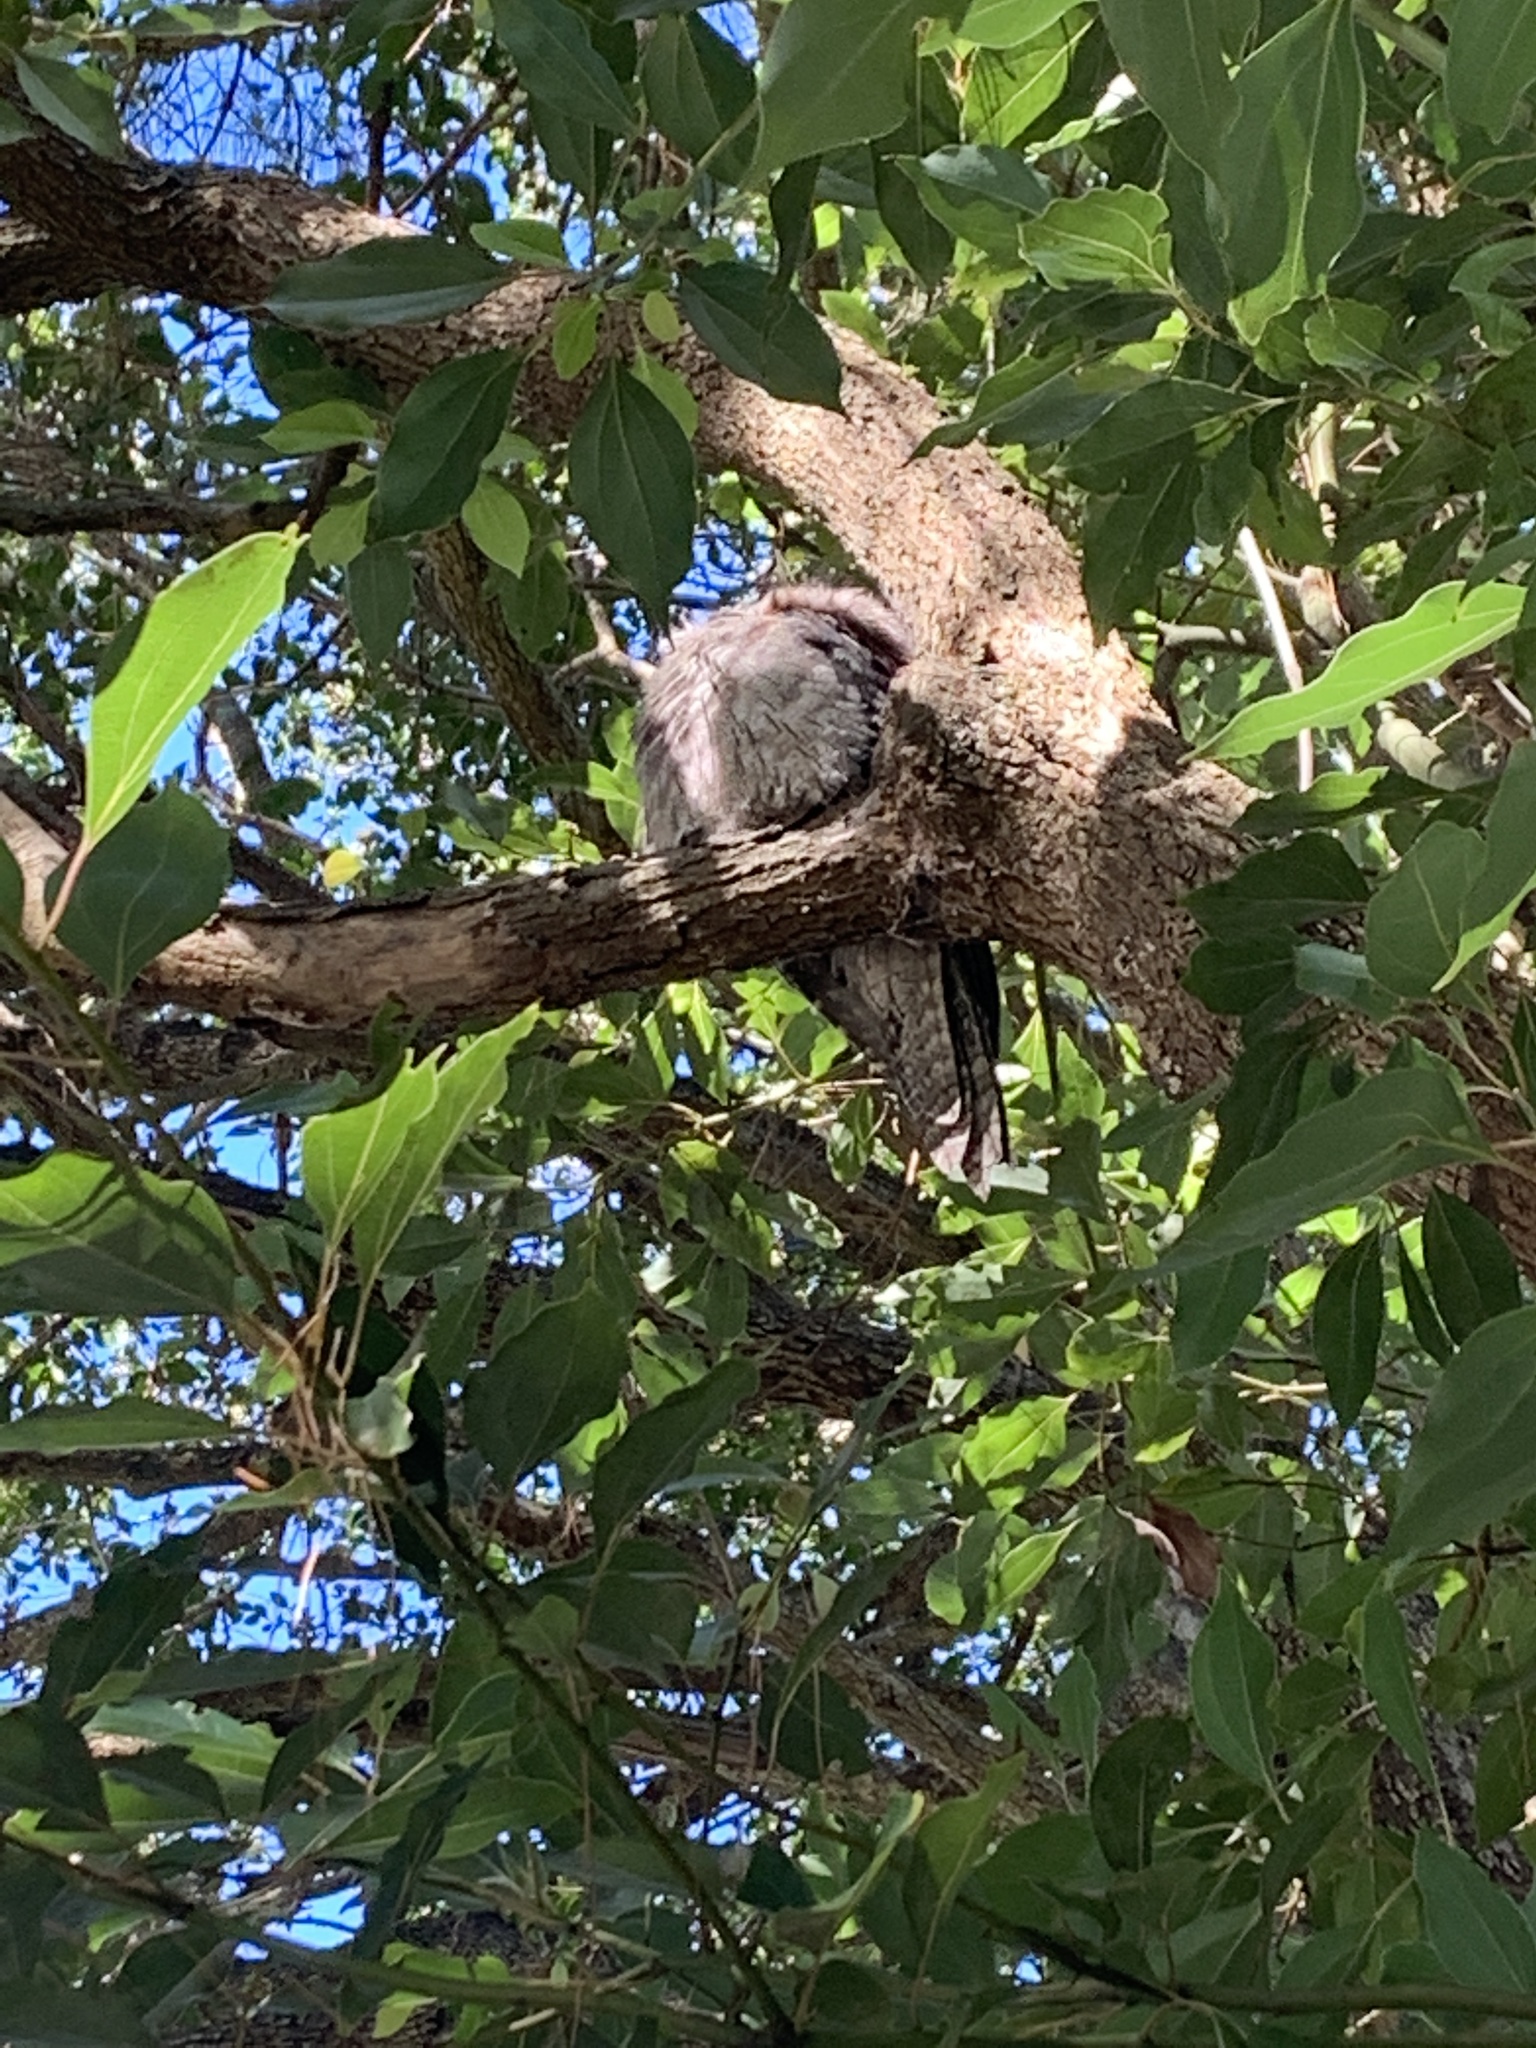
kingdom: Animalia
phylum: Chordata
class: Aves
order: Caprimulgiformes
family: Podargidae
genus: Podargus
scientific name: Podargus strigoides
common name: Tawny frogmouth
